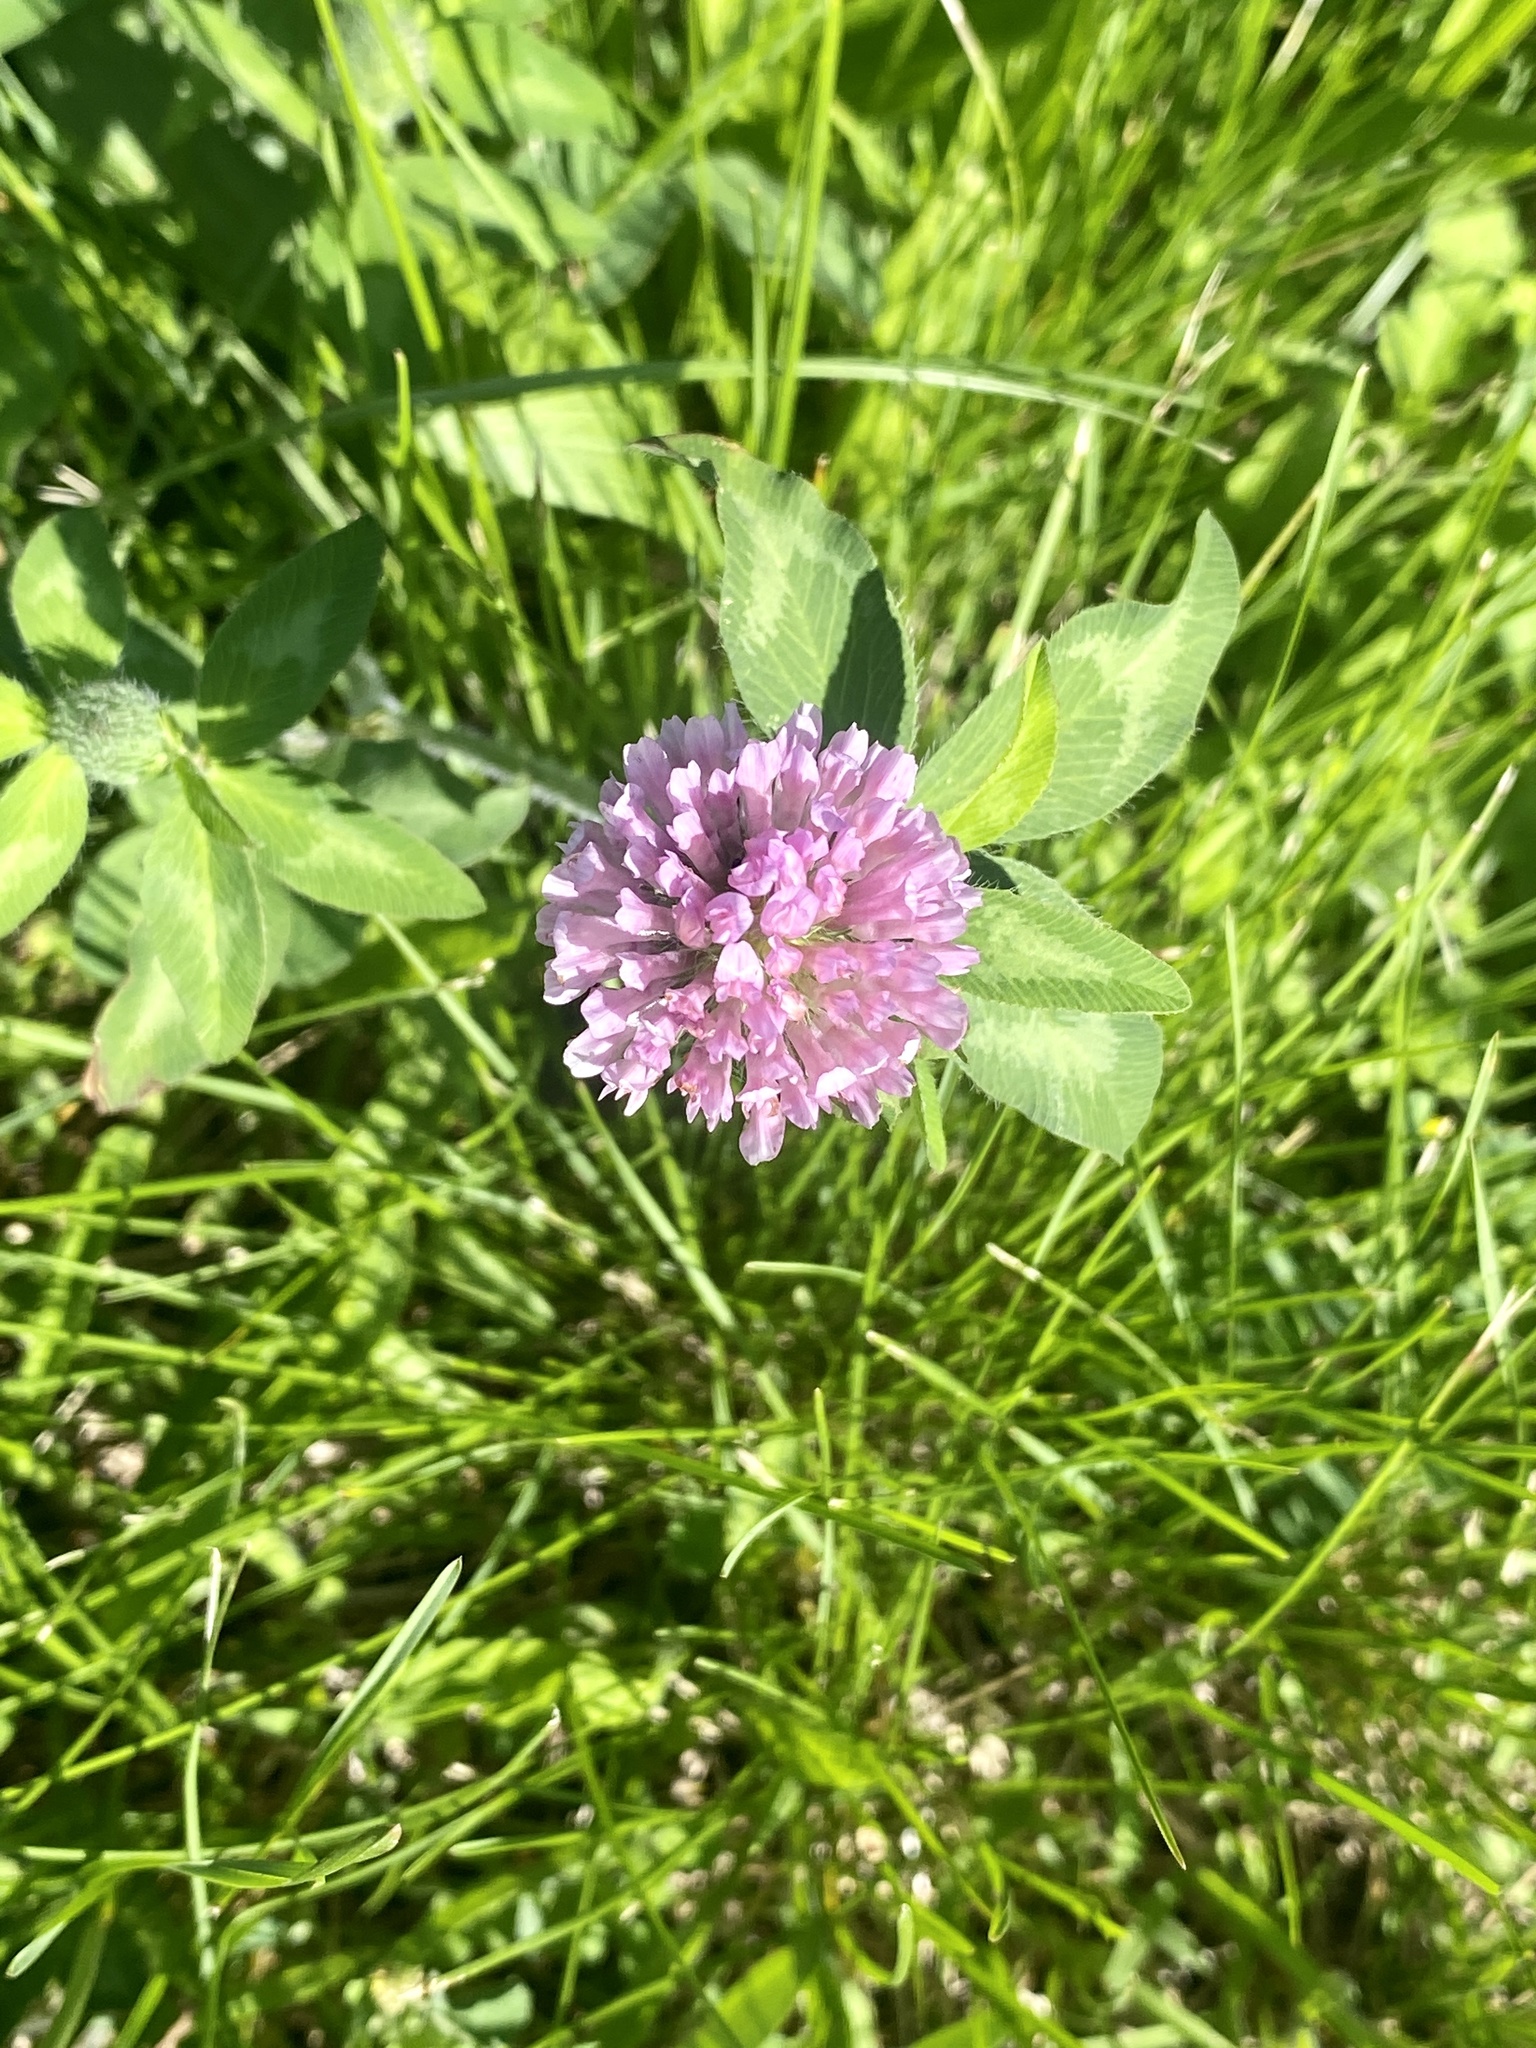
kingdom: Plantae
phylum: Tracheophyta
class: Magnoliopsida
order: Fabales
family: Fabaceae
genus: Trifolium
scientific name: Trifolium pratense
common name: Red clover
